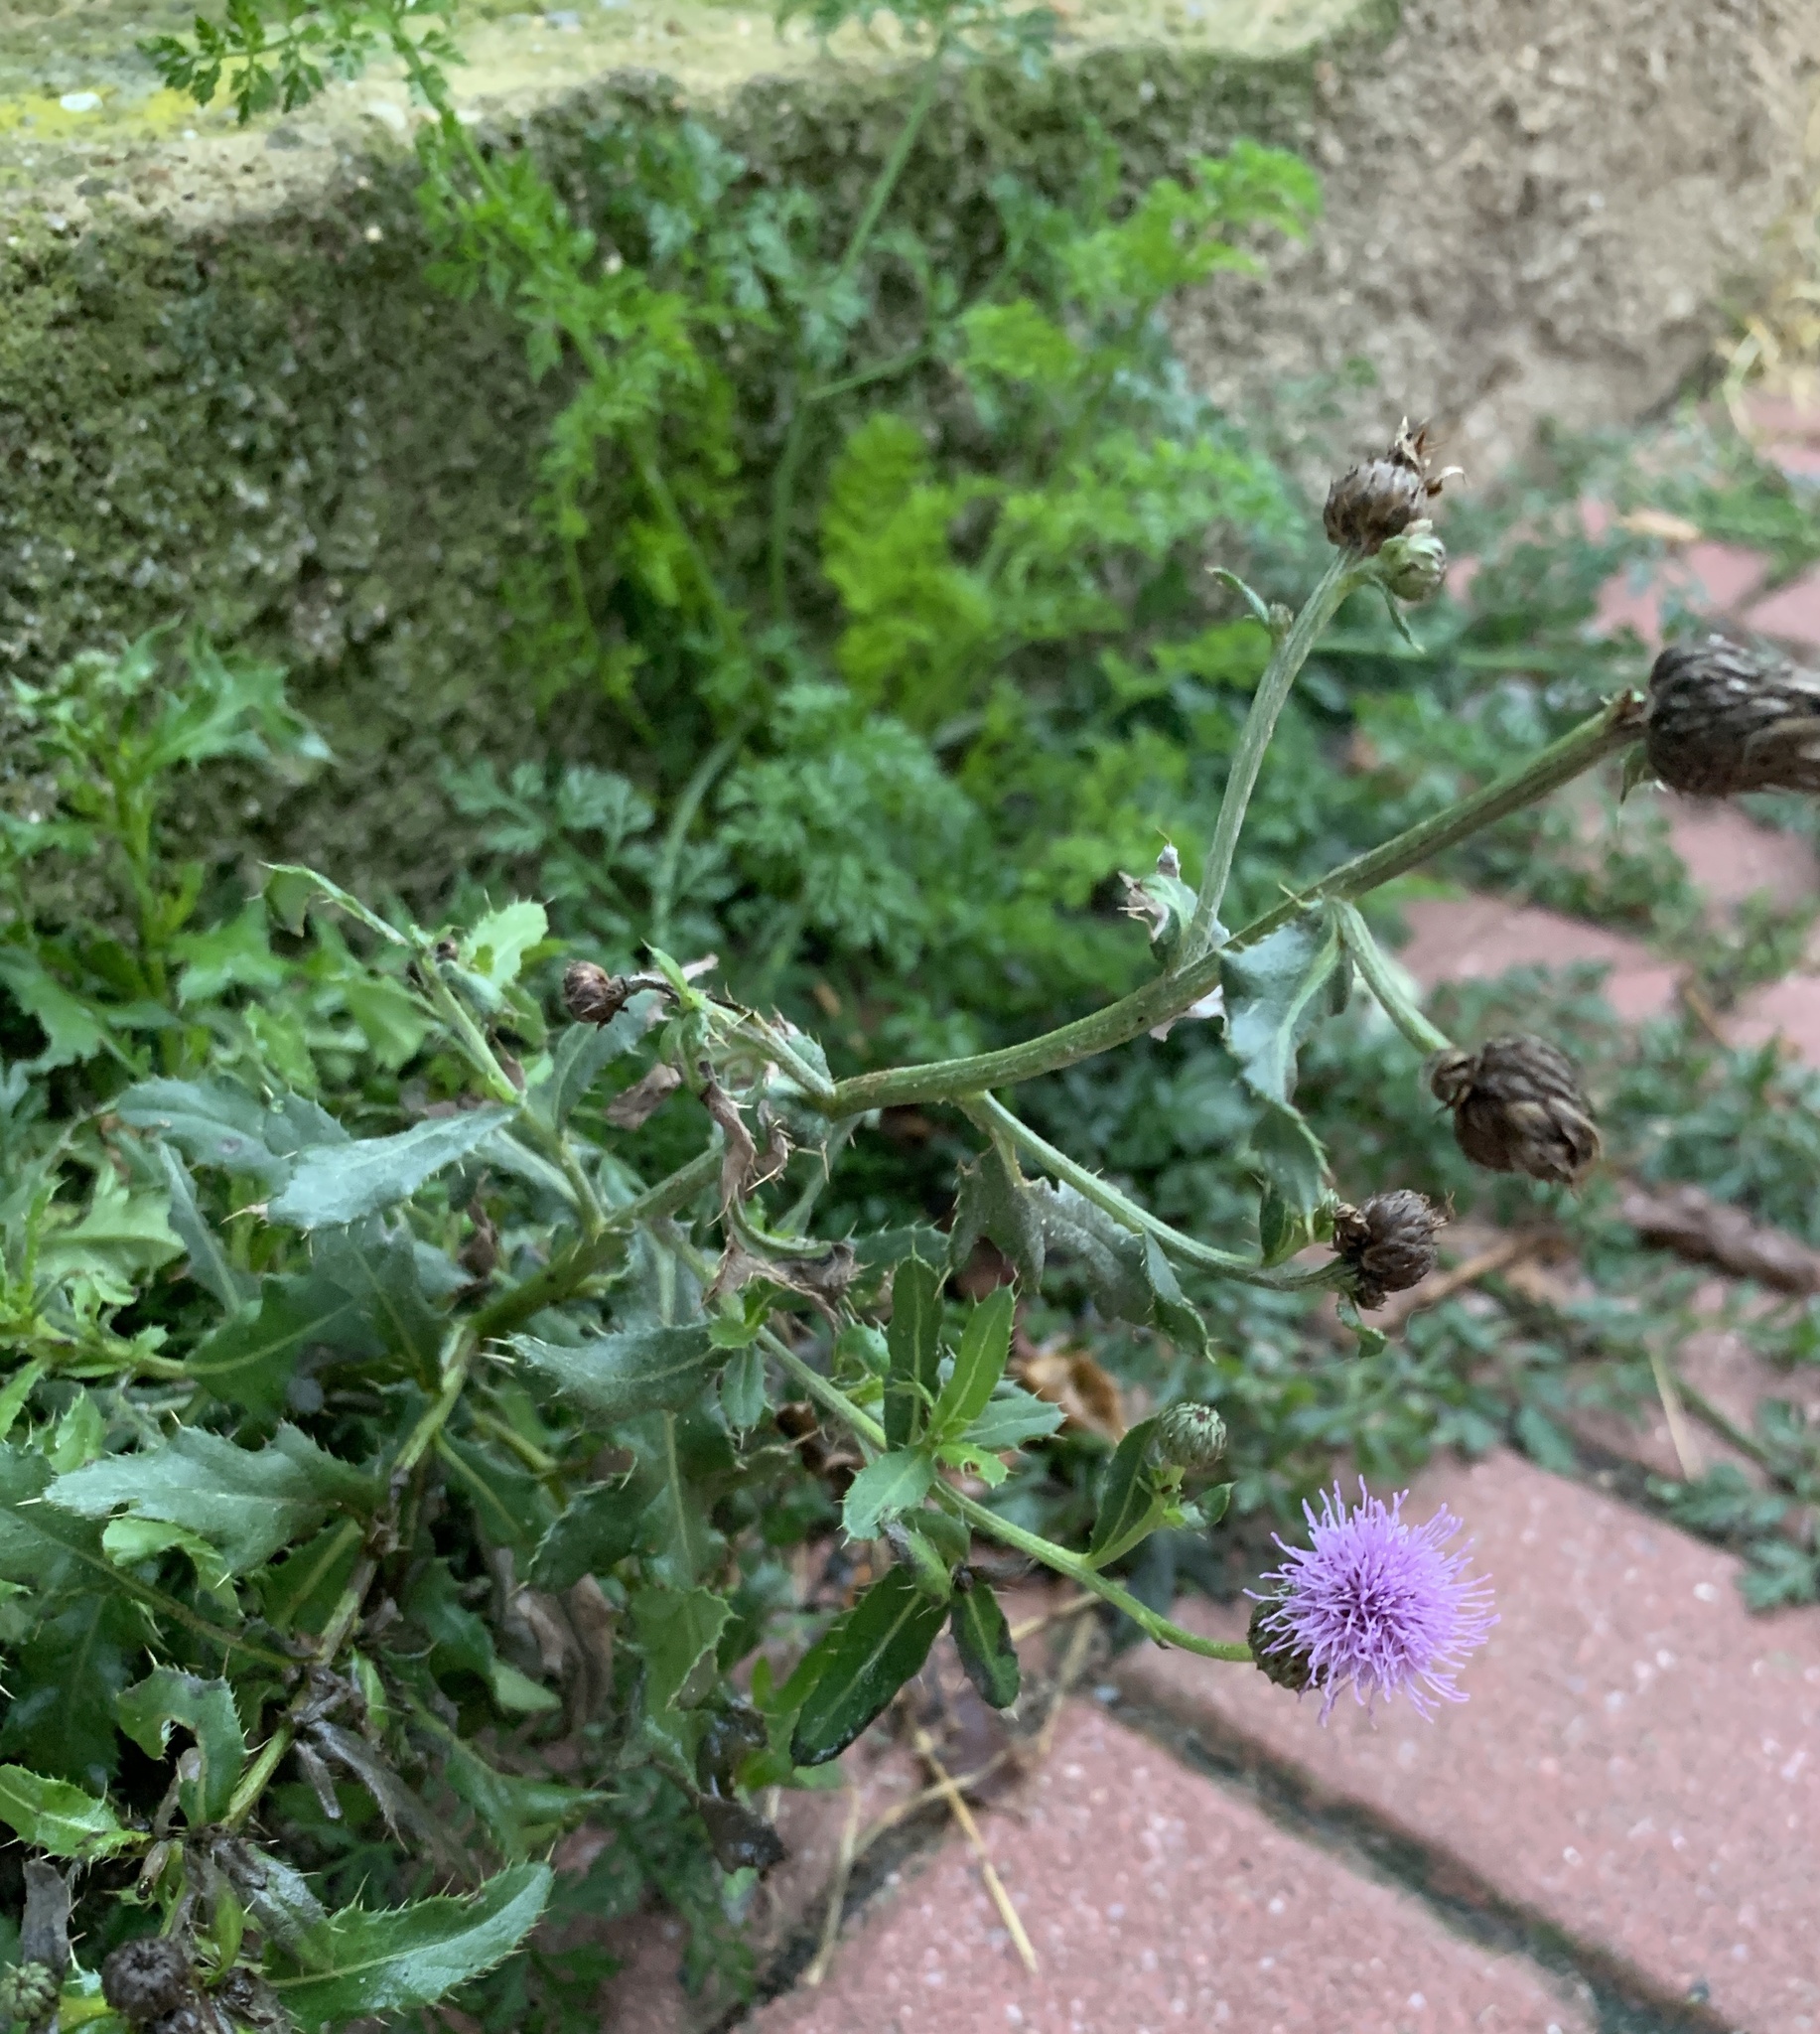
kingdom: Plantae
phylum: Tracheophyta
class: Magnoliopsida
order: Asterales
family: Asteraceae
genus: Cirsium
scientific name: Cirsium arvense
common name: Creeping thistle
